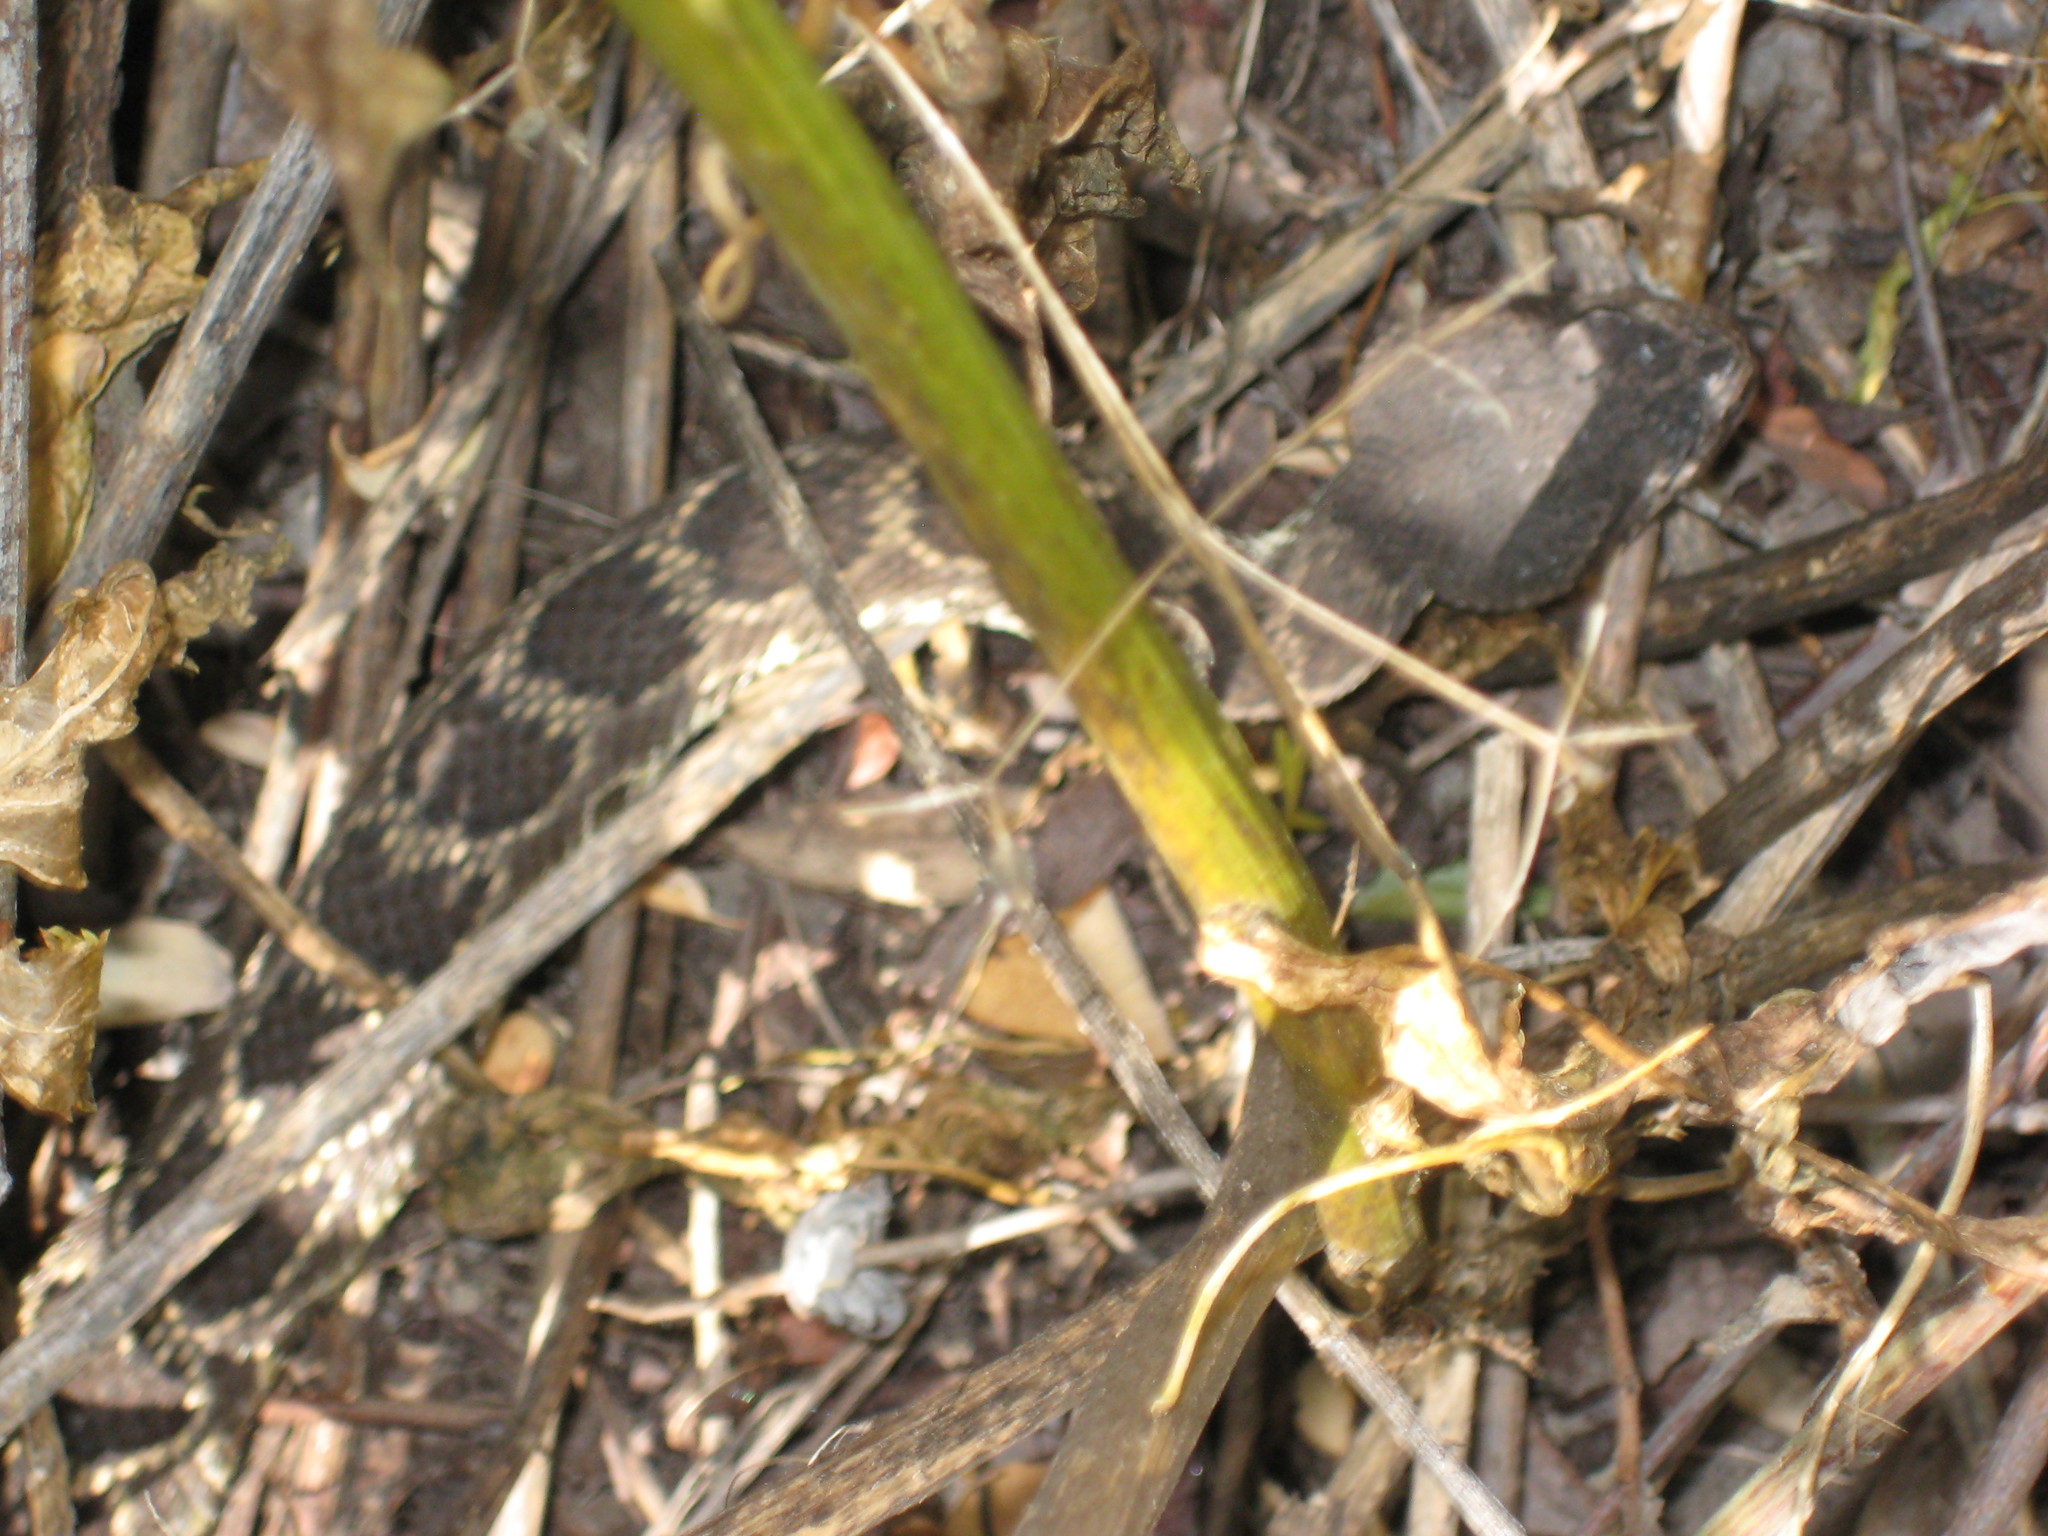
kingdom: Animalia
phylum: Chordata
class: Squamata
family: Viperidae
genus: Crotalus
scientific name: Crotalus oreganus
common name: Abyssus
